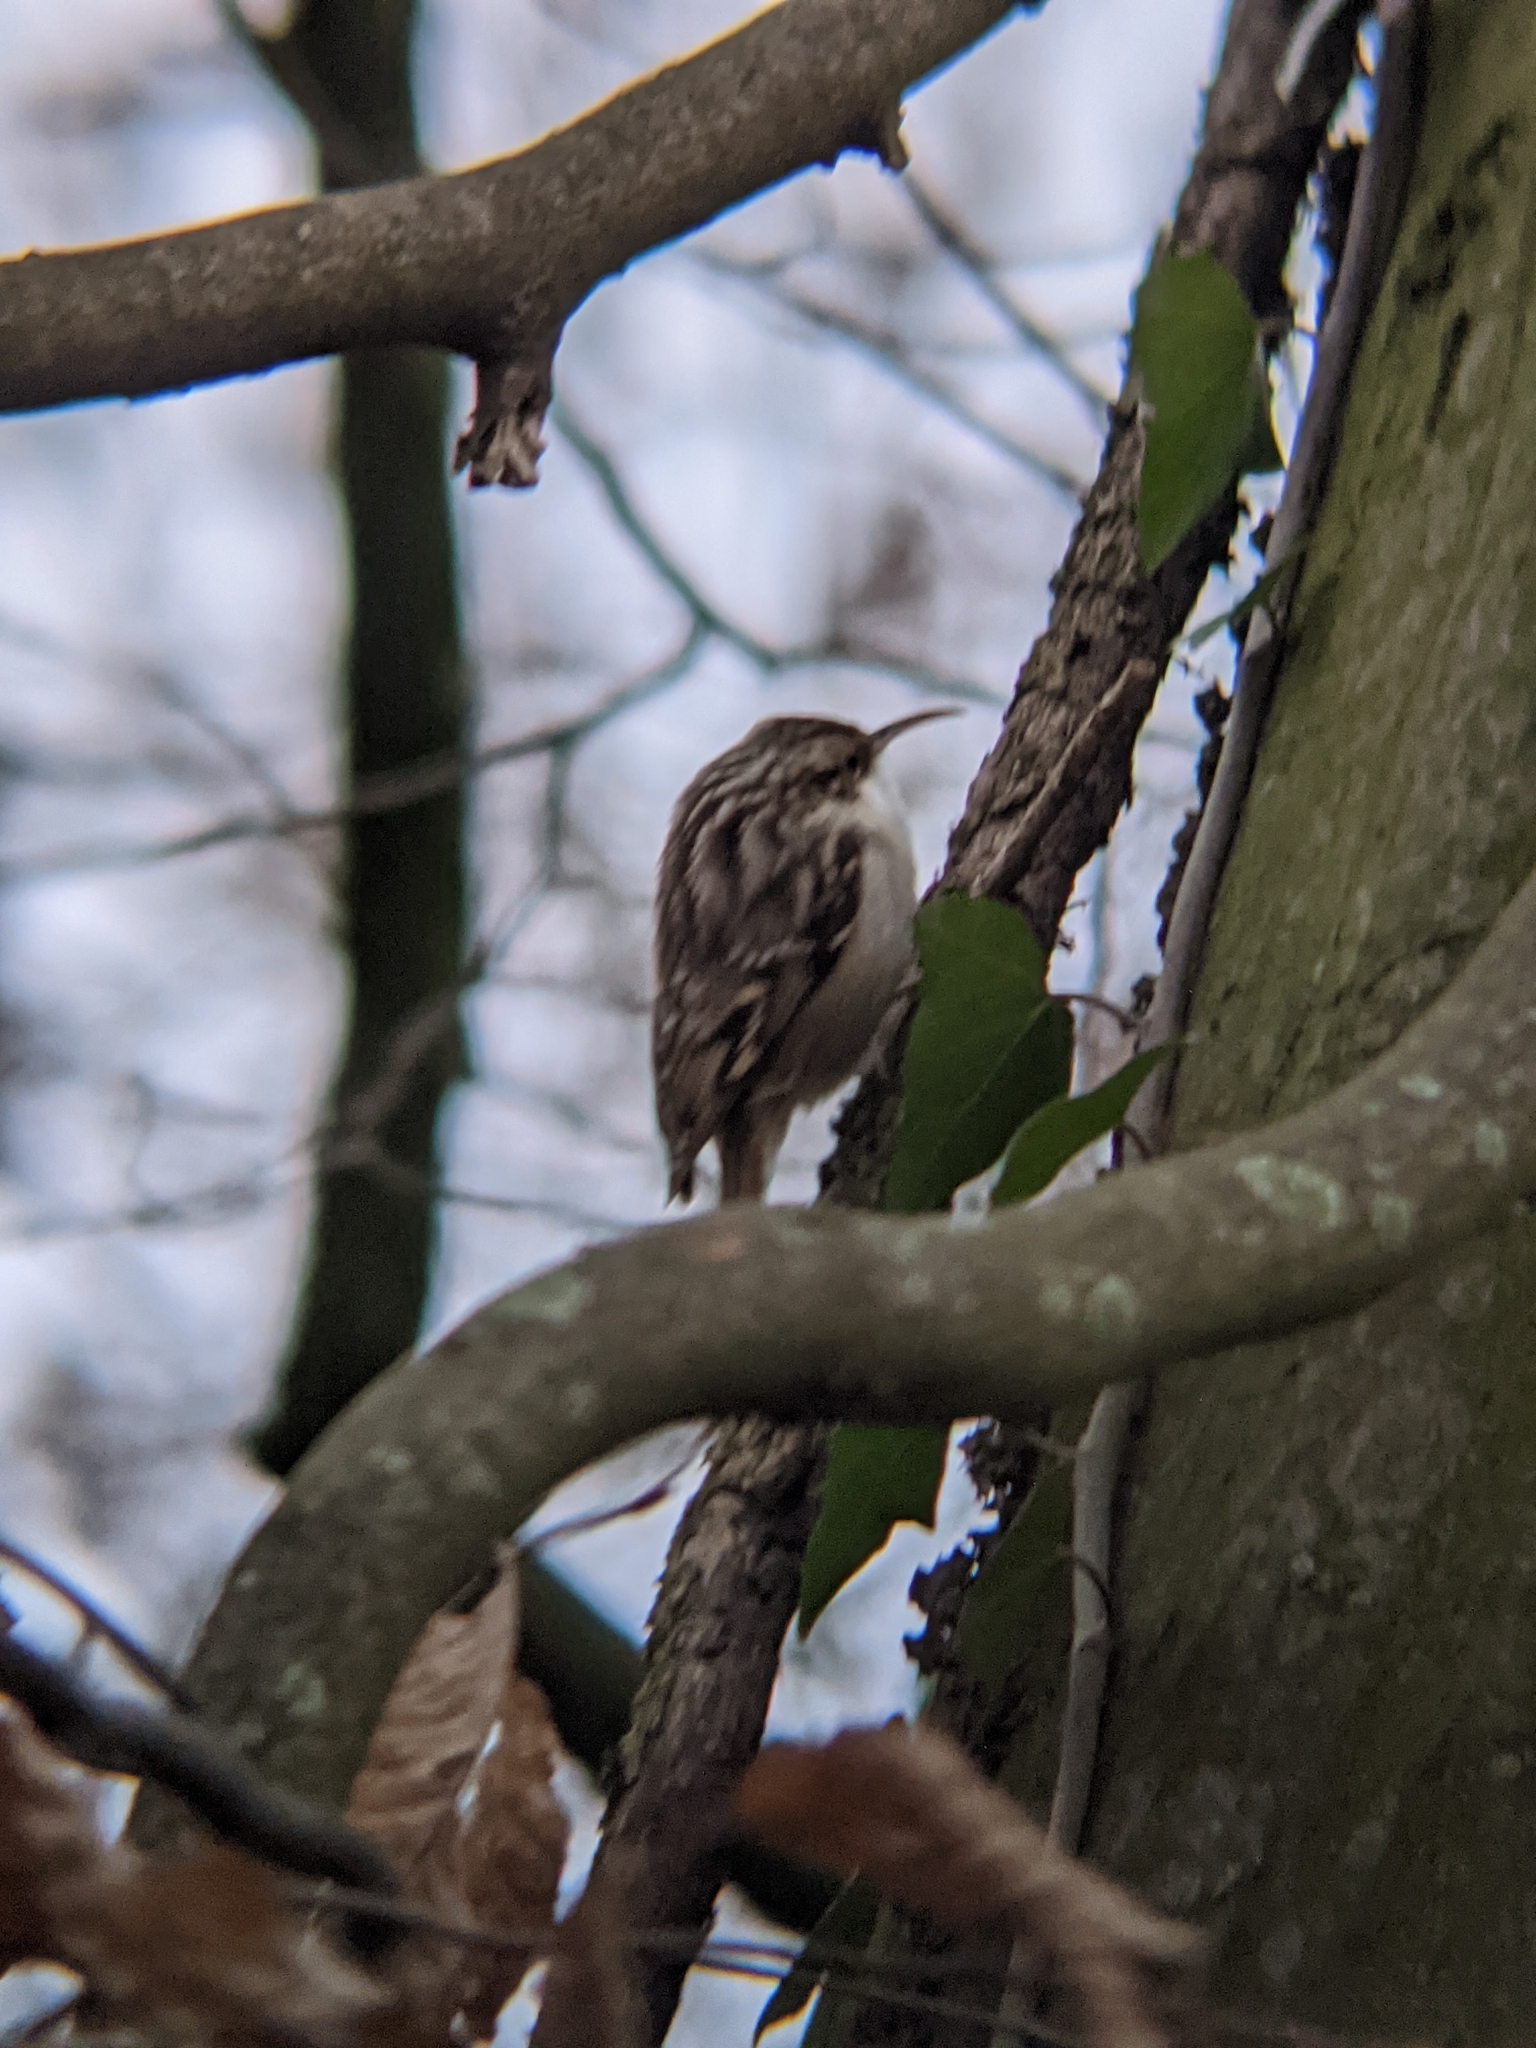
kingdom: Animalia
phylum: Chordata
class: Aves
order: Passeriformes
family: Certhiidae
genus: Certhia
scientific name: Certhia brachydactyla
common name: Short-toed treecreeper
